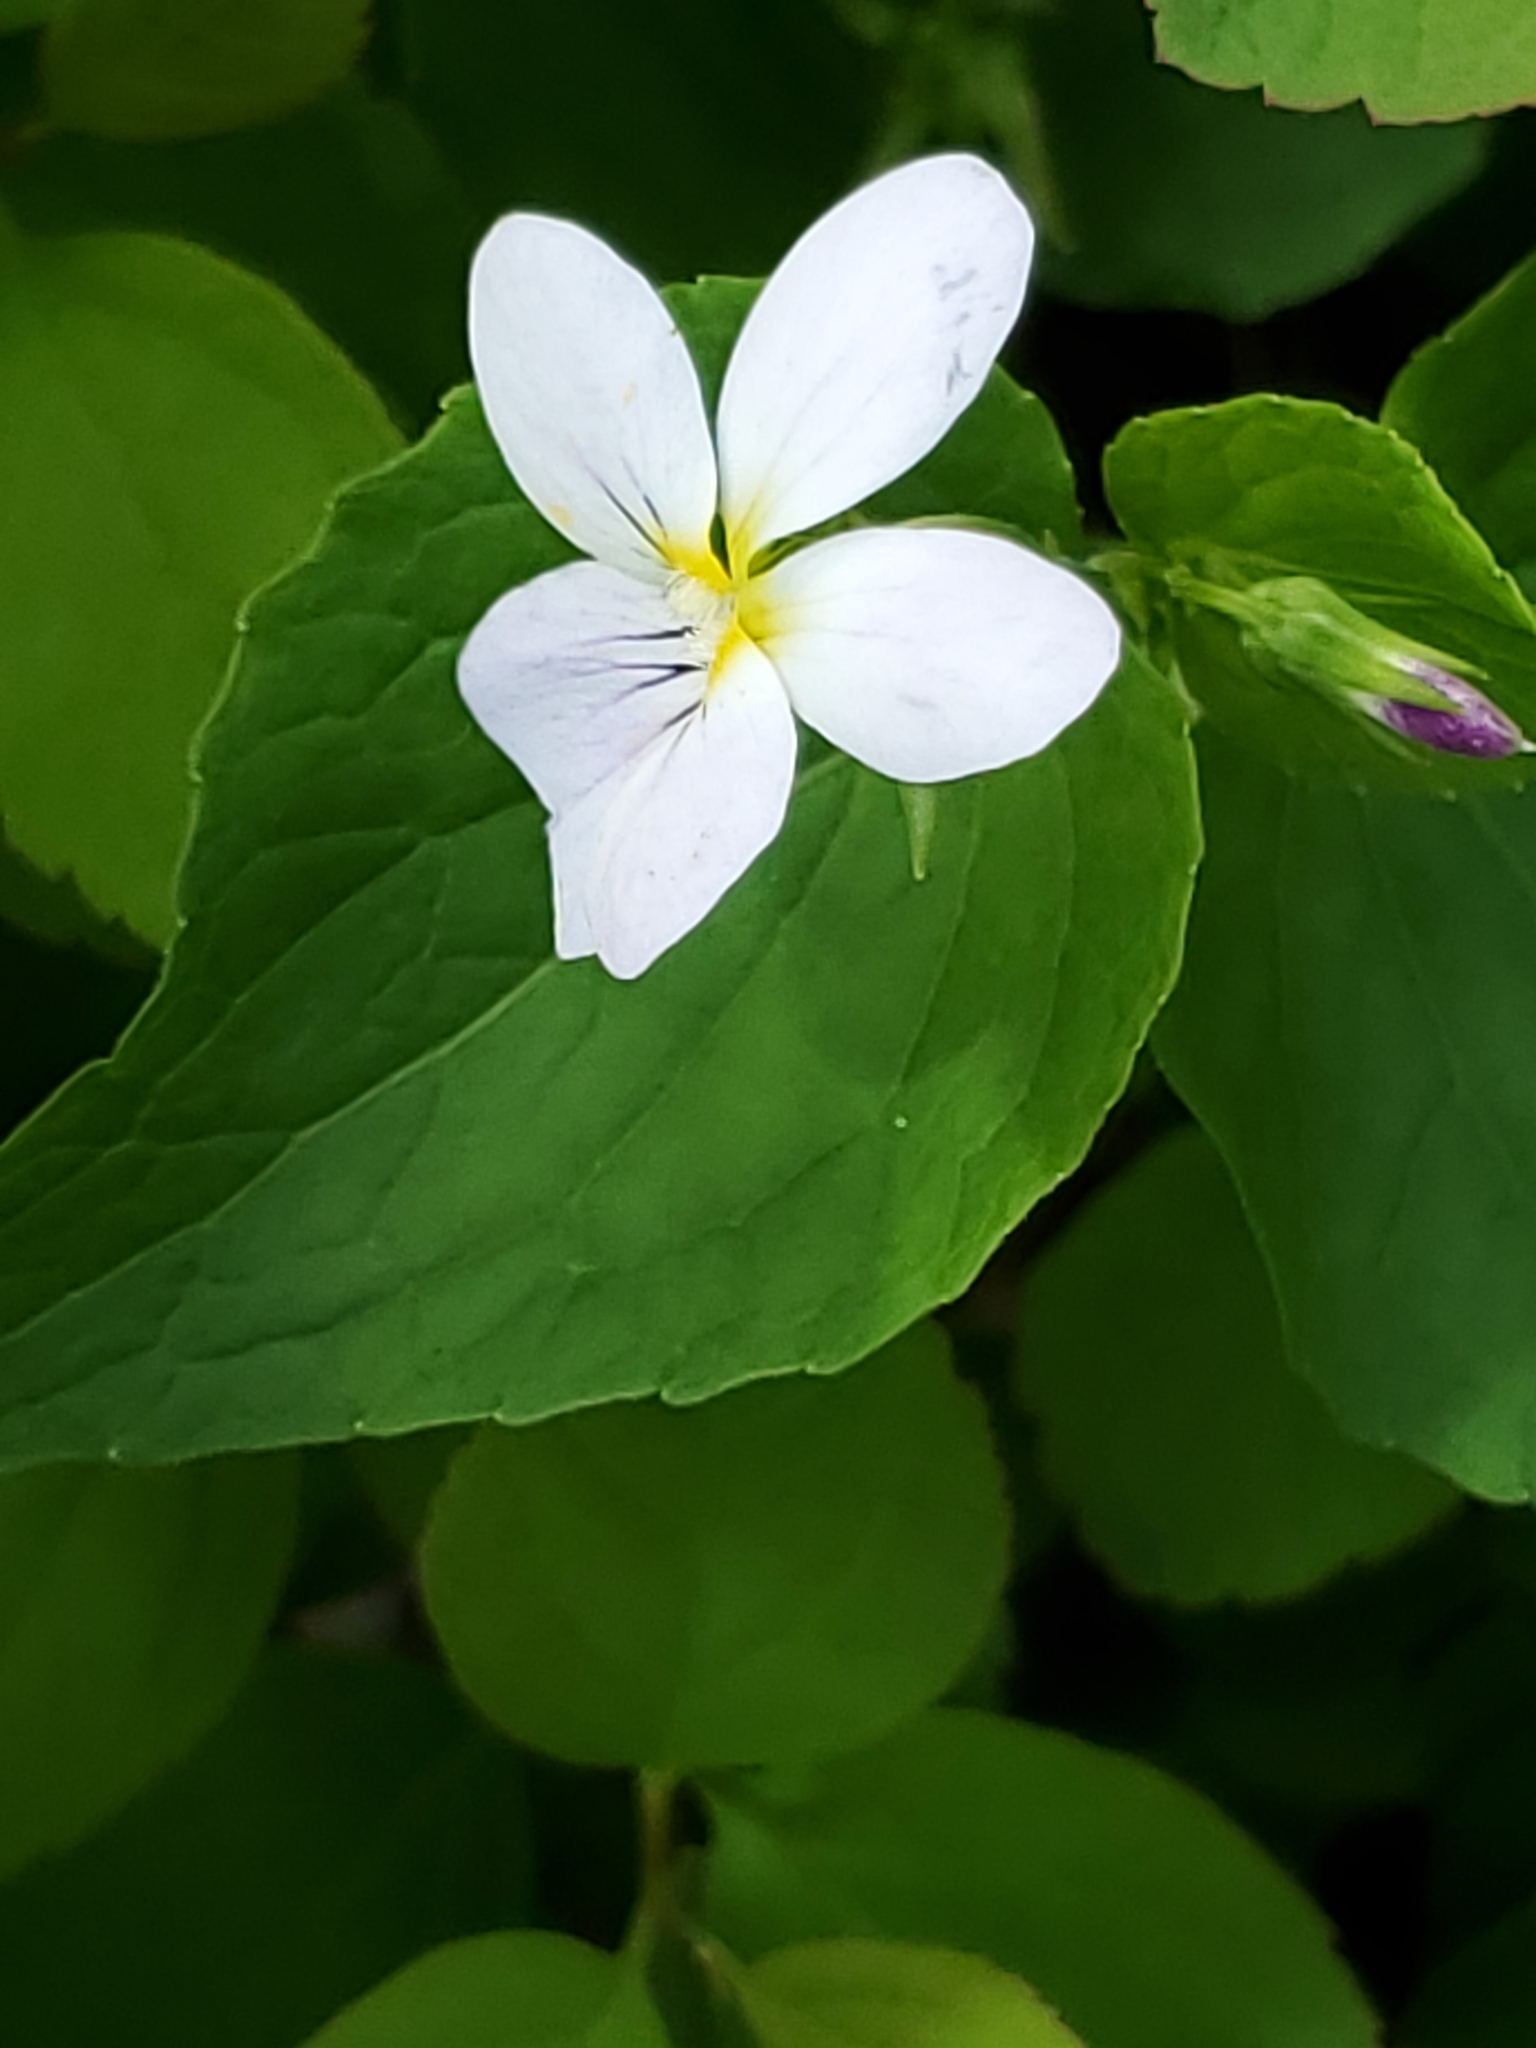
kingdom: Plantae
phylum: Tracheophyta
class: Magnoliopsida
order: Malpighiales
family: Violaceae
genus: Viola
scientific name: Viola canadensis
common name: Canada violet
